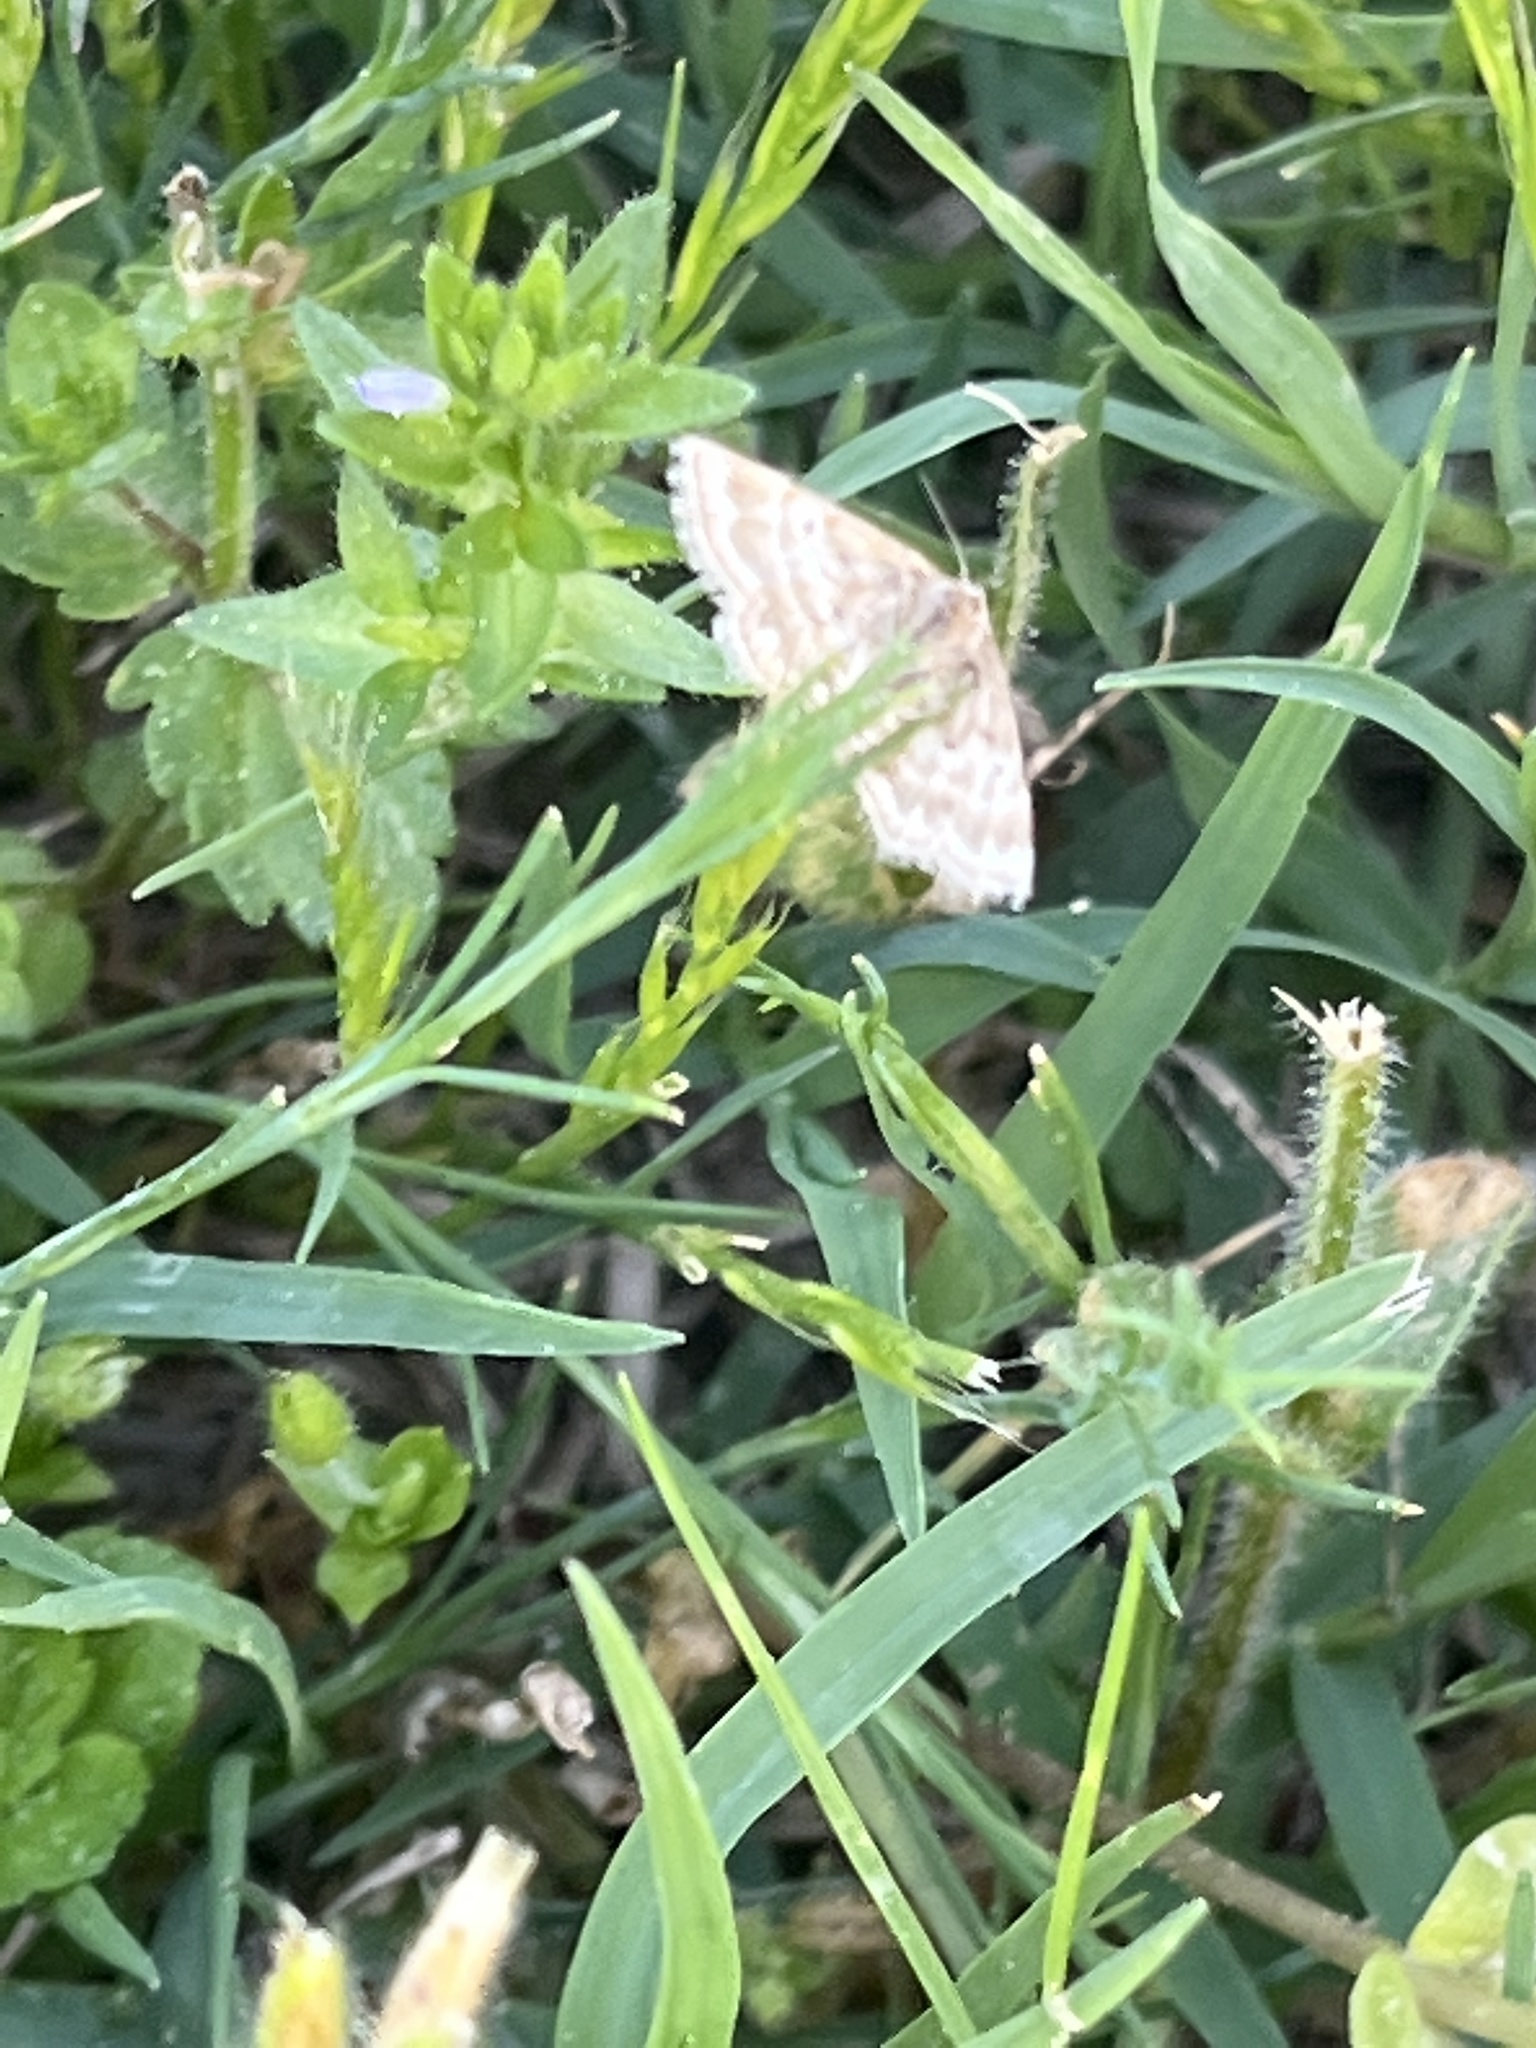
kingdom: Animalia
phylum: Arthropoda
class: Insecta
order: Lepidoptera
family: Geometridae
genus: Emmiltis
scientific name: Emmiltis pygmaearia
